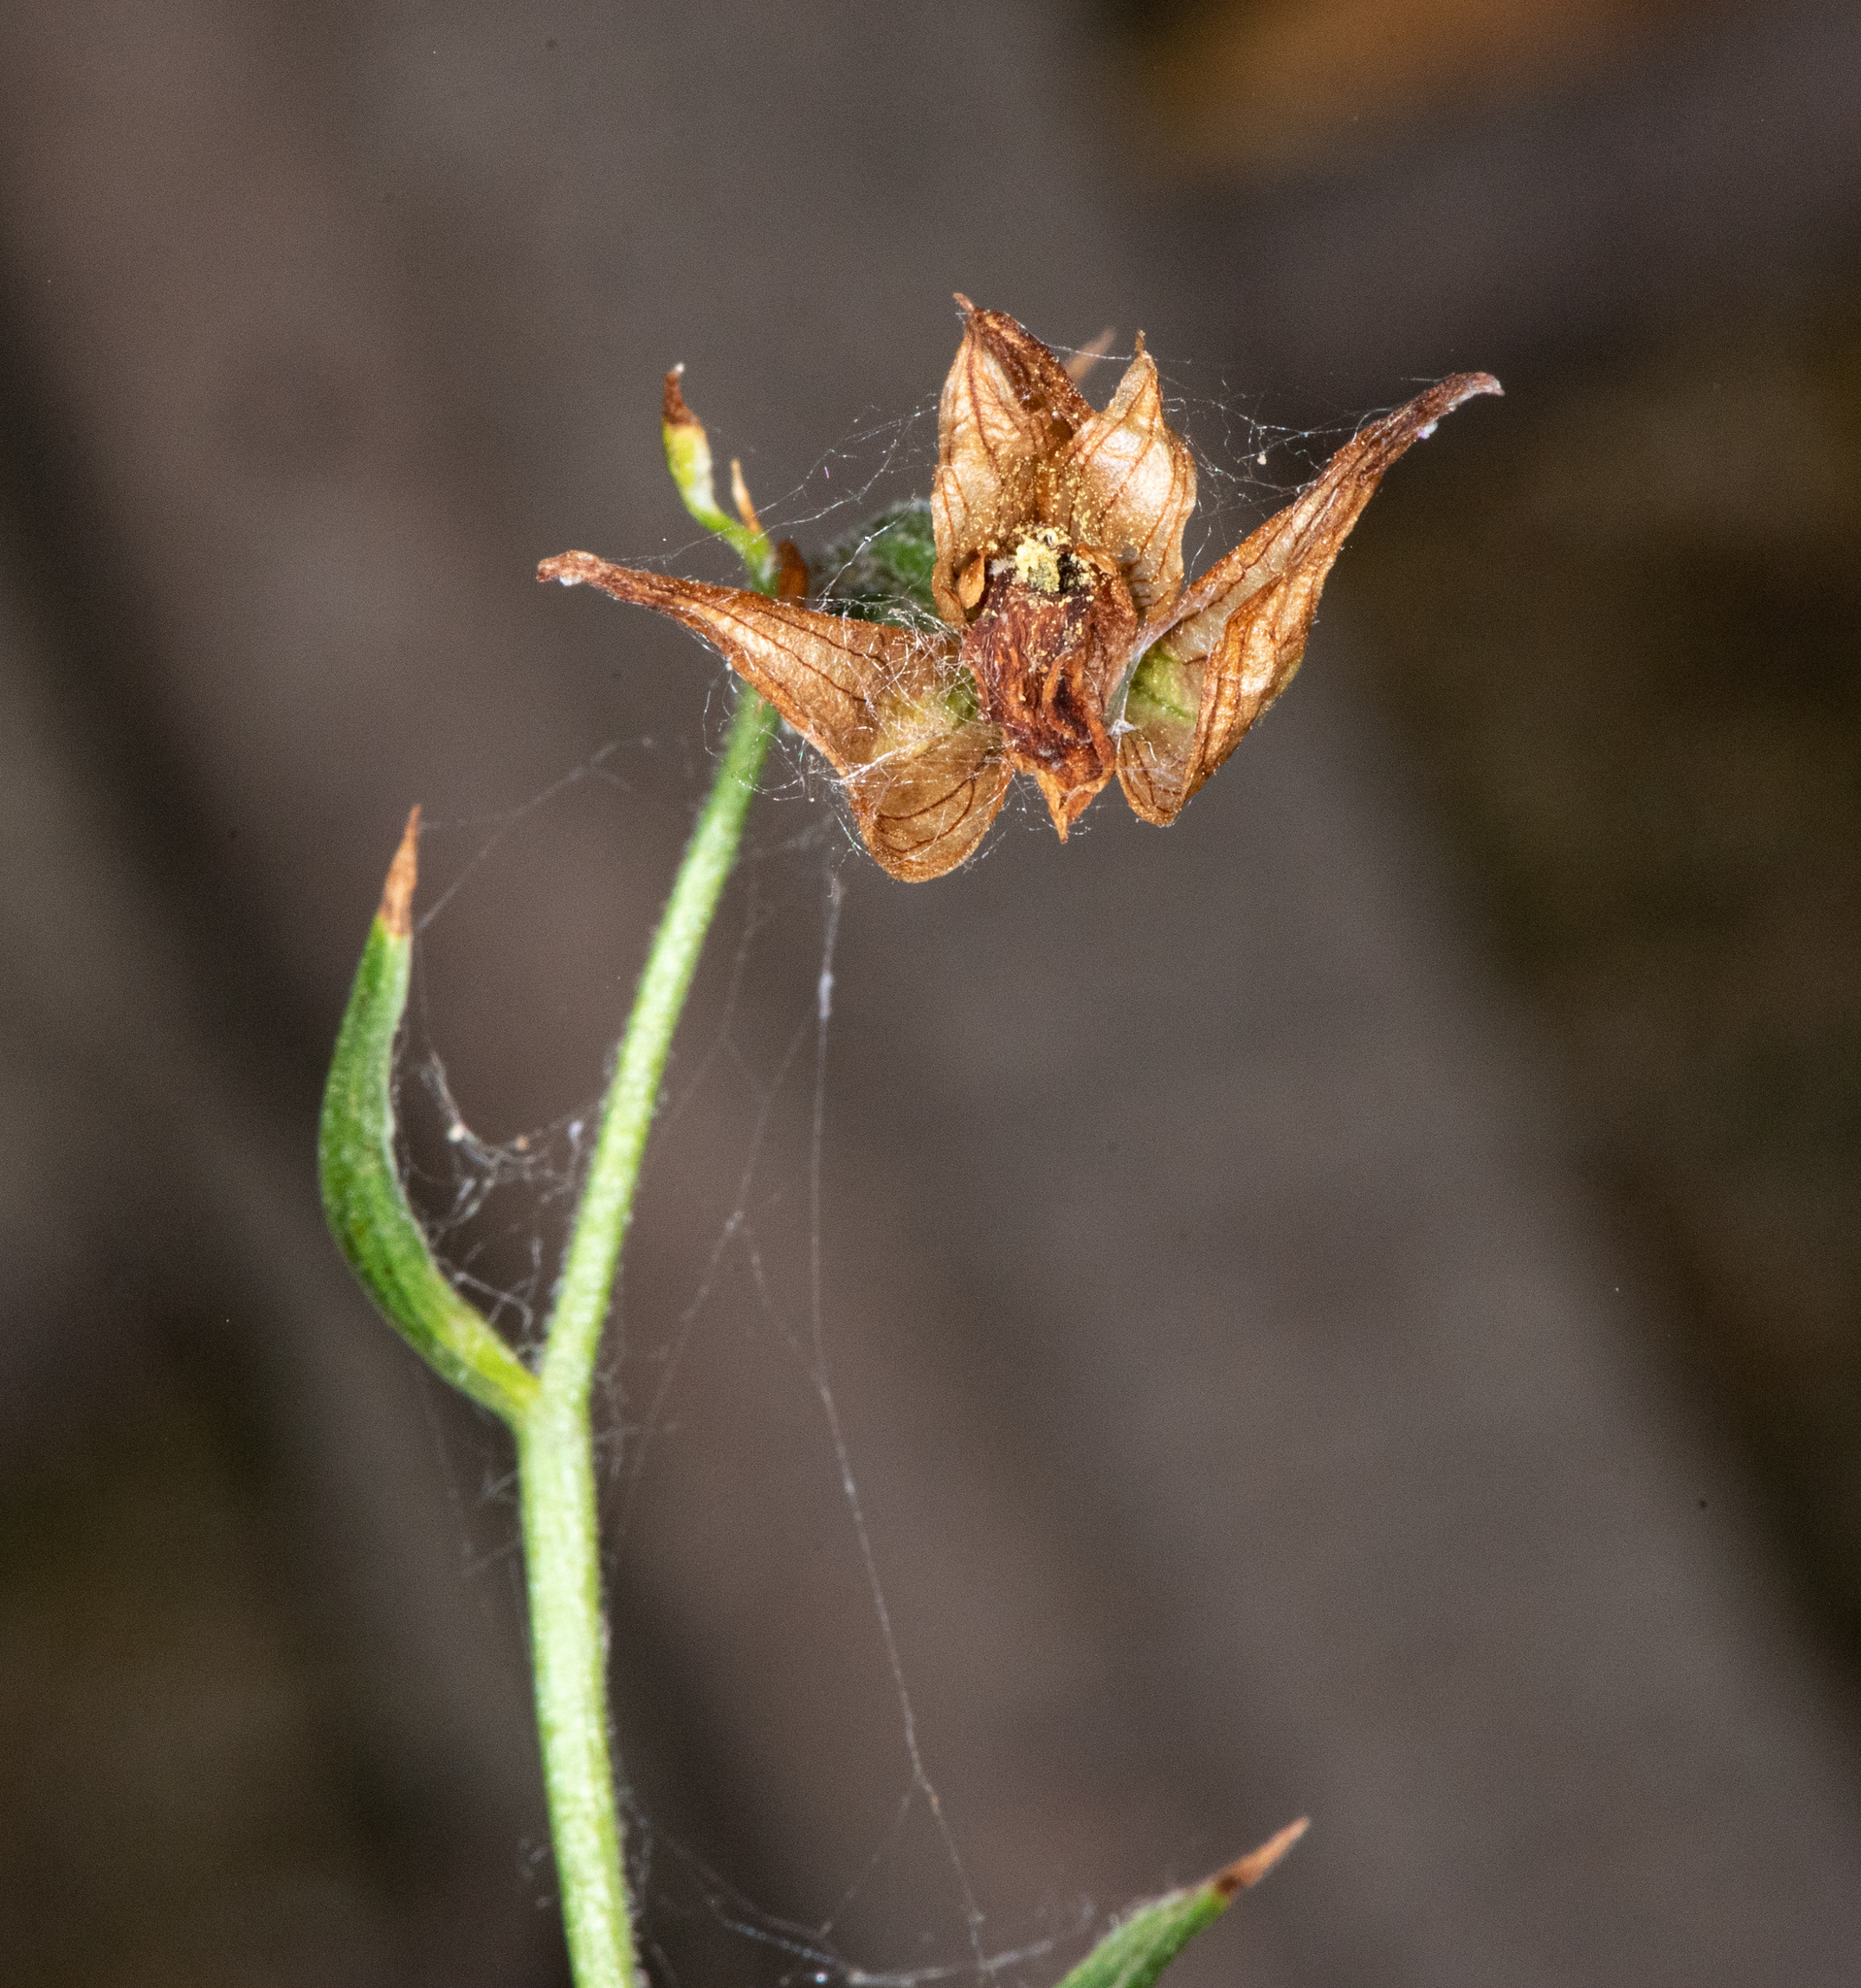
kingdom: Plantae
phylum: Tracheophyta
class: Liliopsida
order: Asparagales
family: Orchidaceae
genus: Epipactis
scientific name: Epipactis gigantea
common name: Chatterbox
